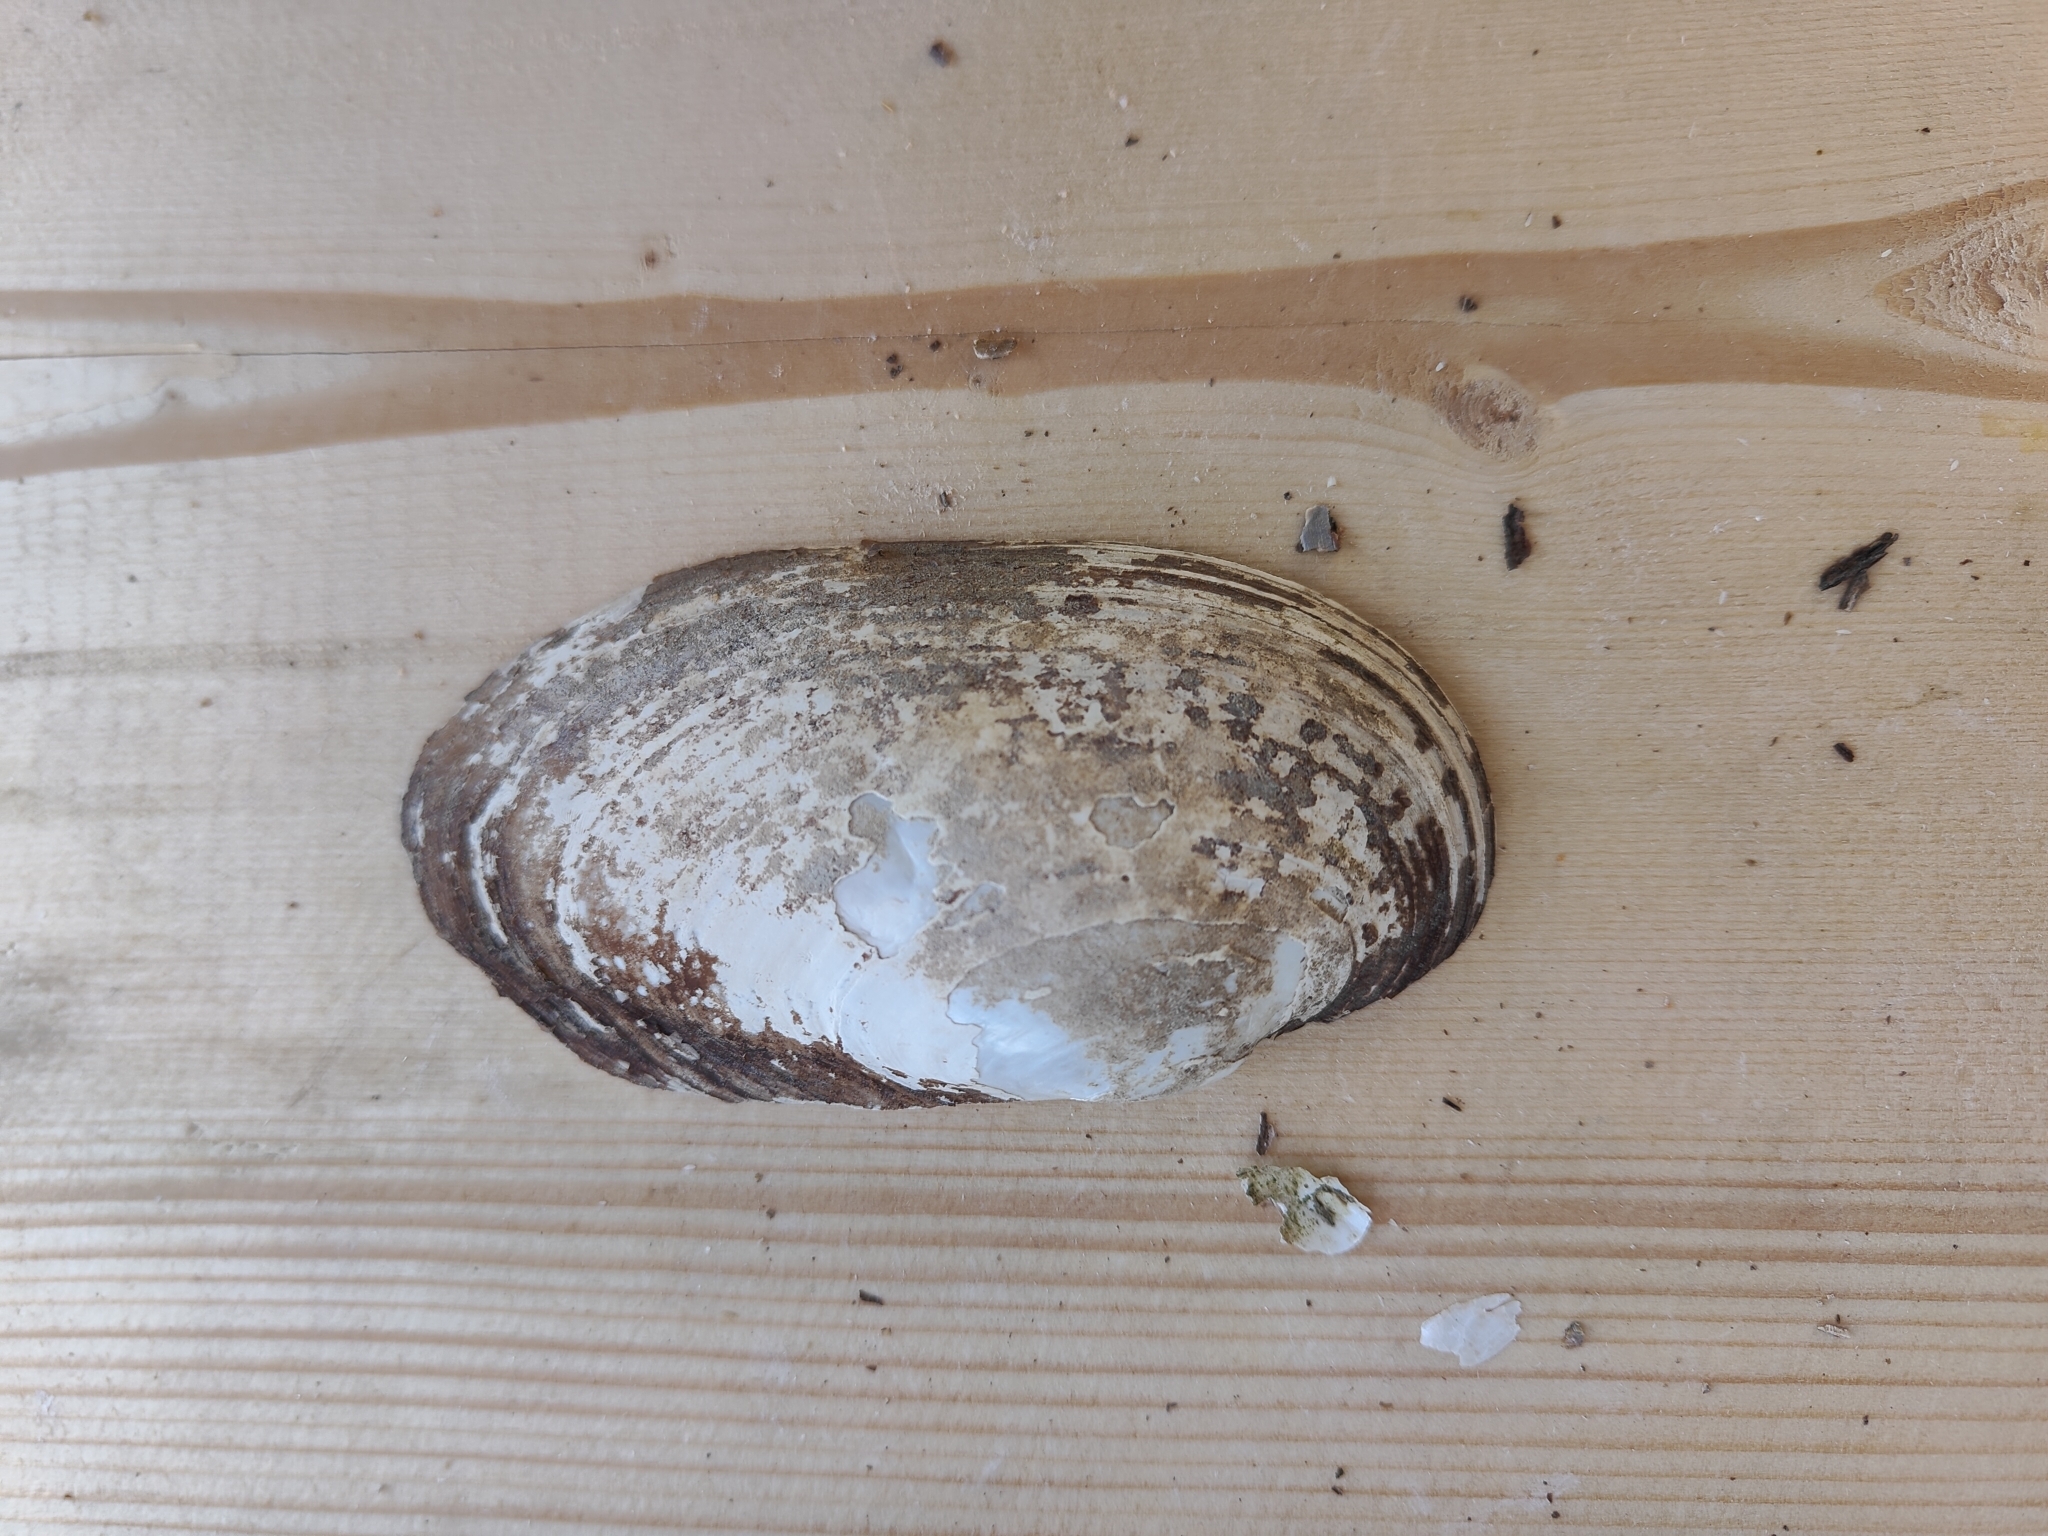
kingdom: Animalia
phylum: Mollusca
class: Bivalvia
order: Unionida
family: Unionidae
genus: Lampsilis
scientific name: Lampsilis siliquoidea
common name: Fatmucket
